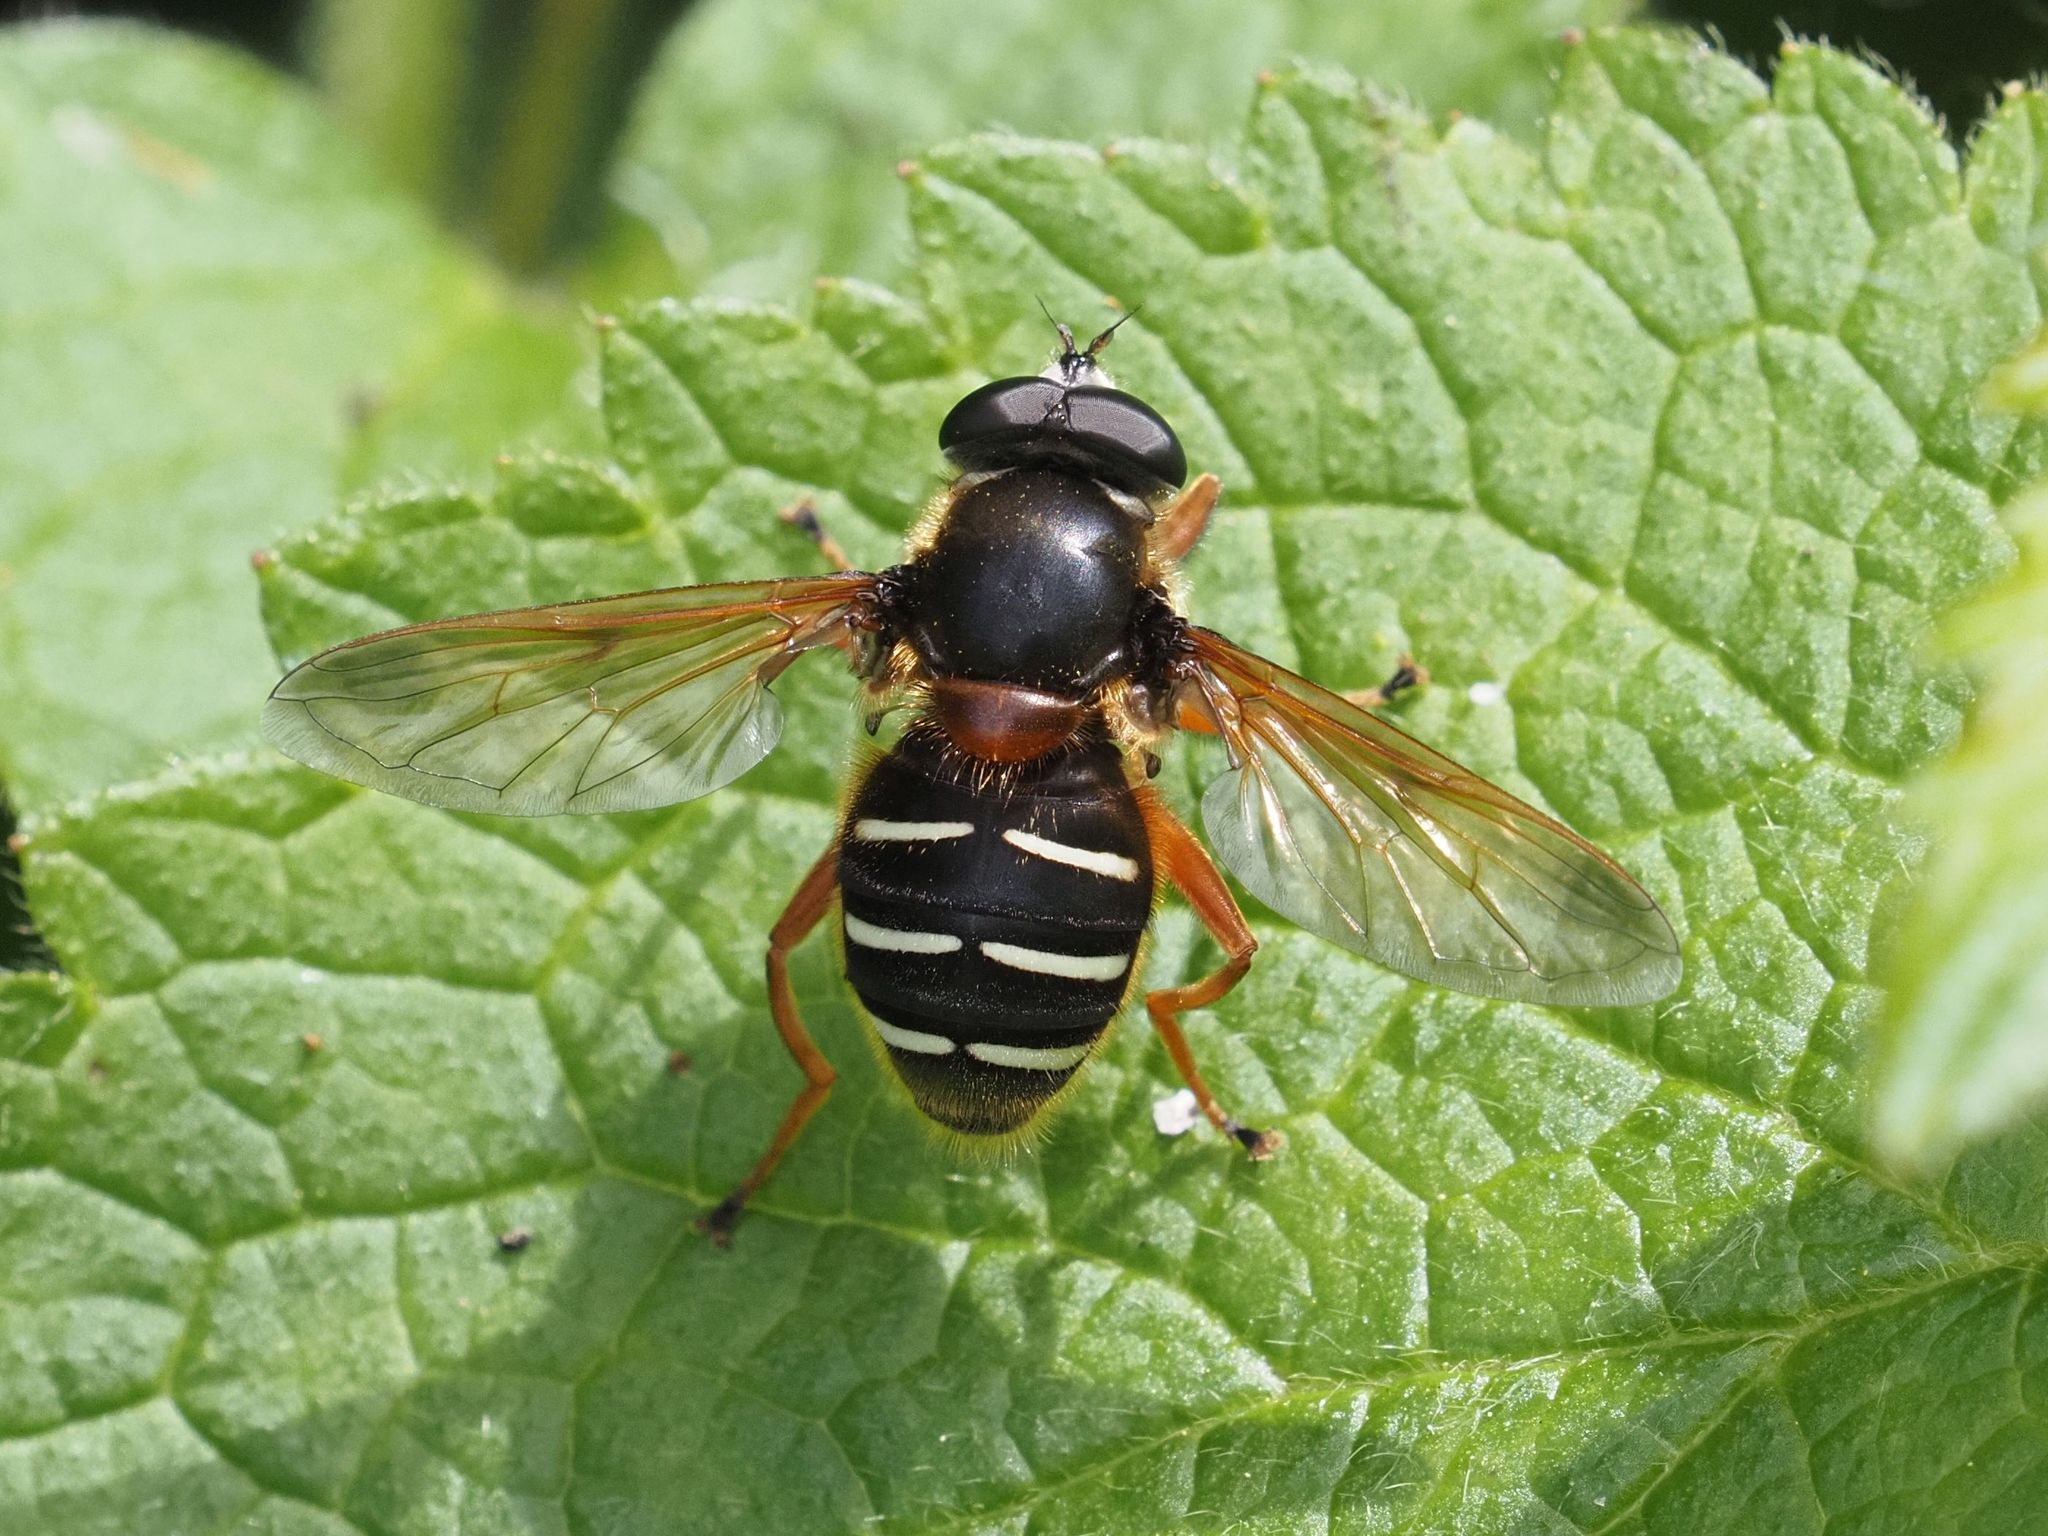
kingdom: Animalia
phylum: Arthropoda
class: Insecta
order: Diptera
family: Syrphidae
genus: Sericomyia
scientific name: Sericomyia lappona
